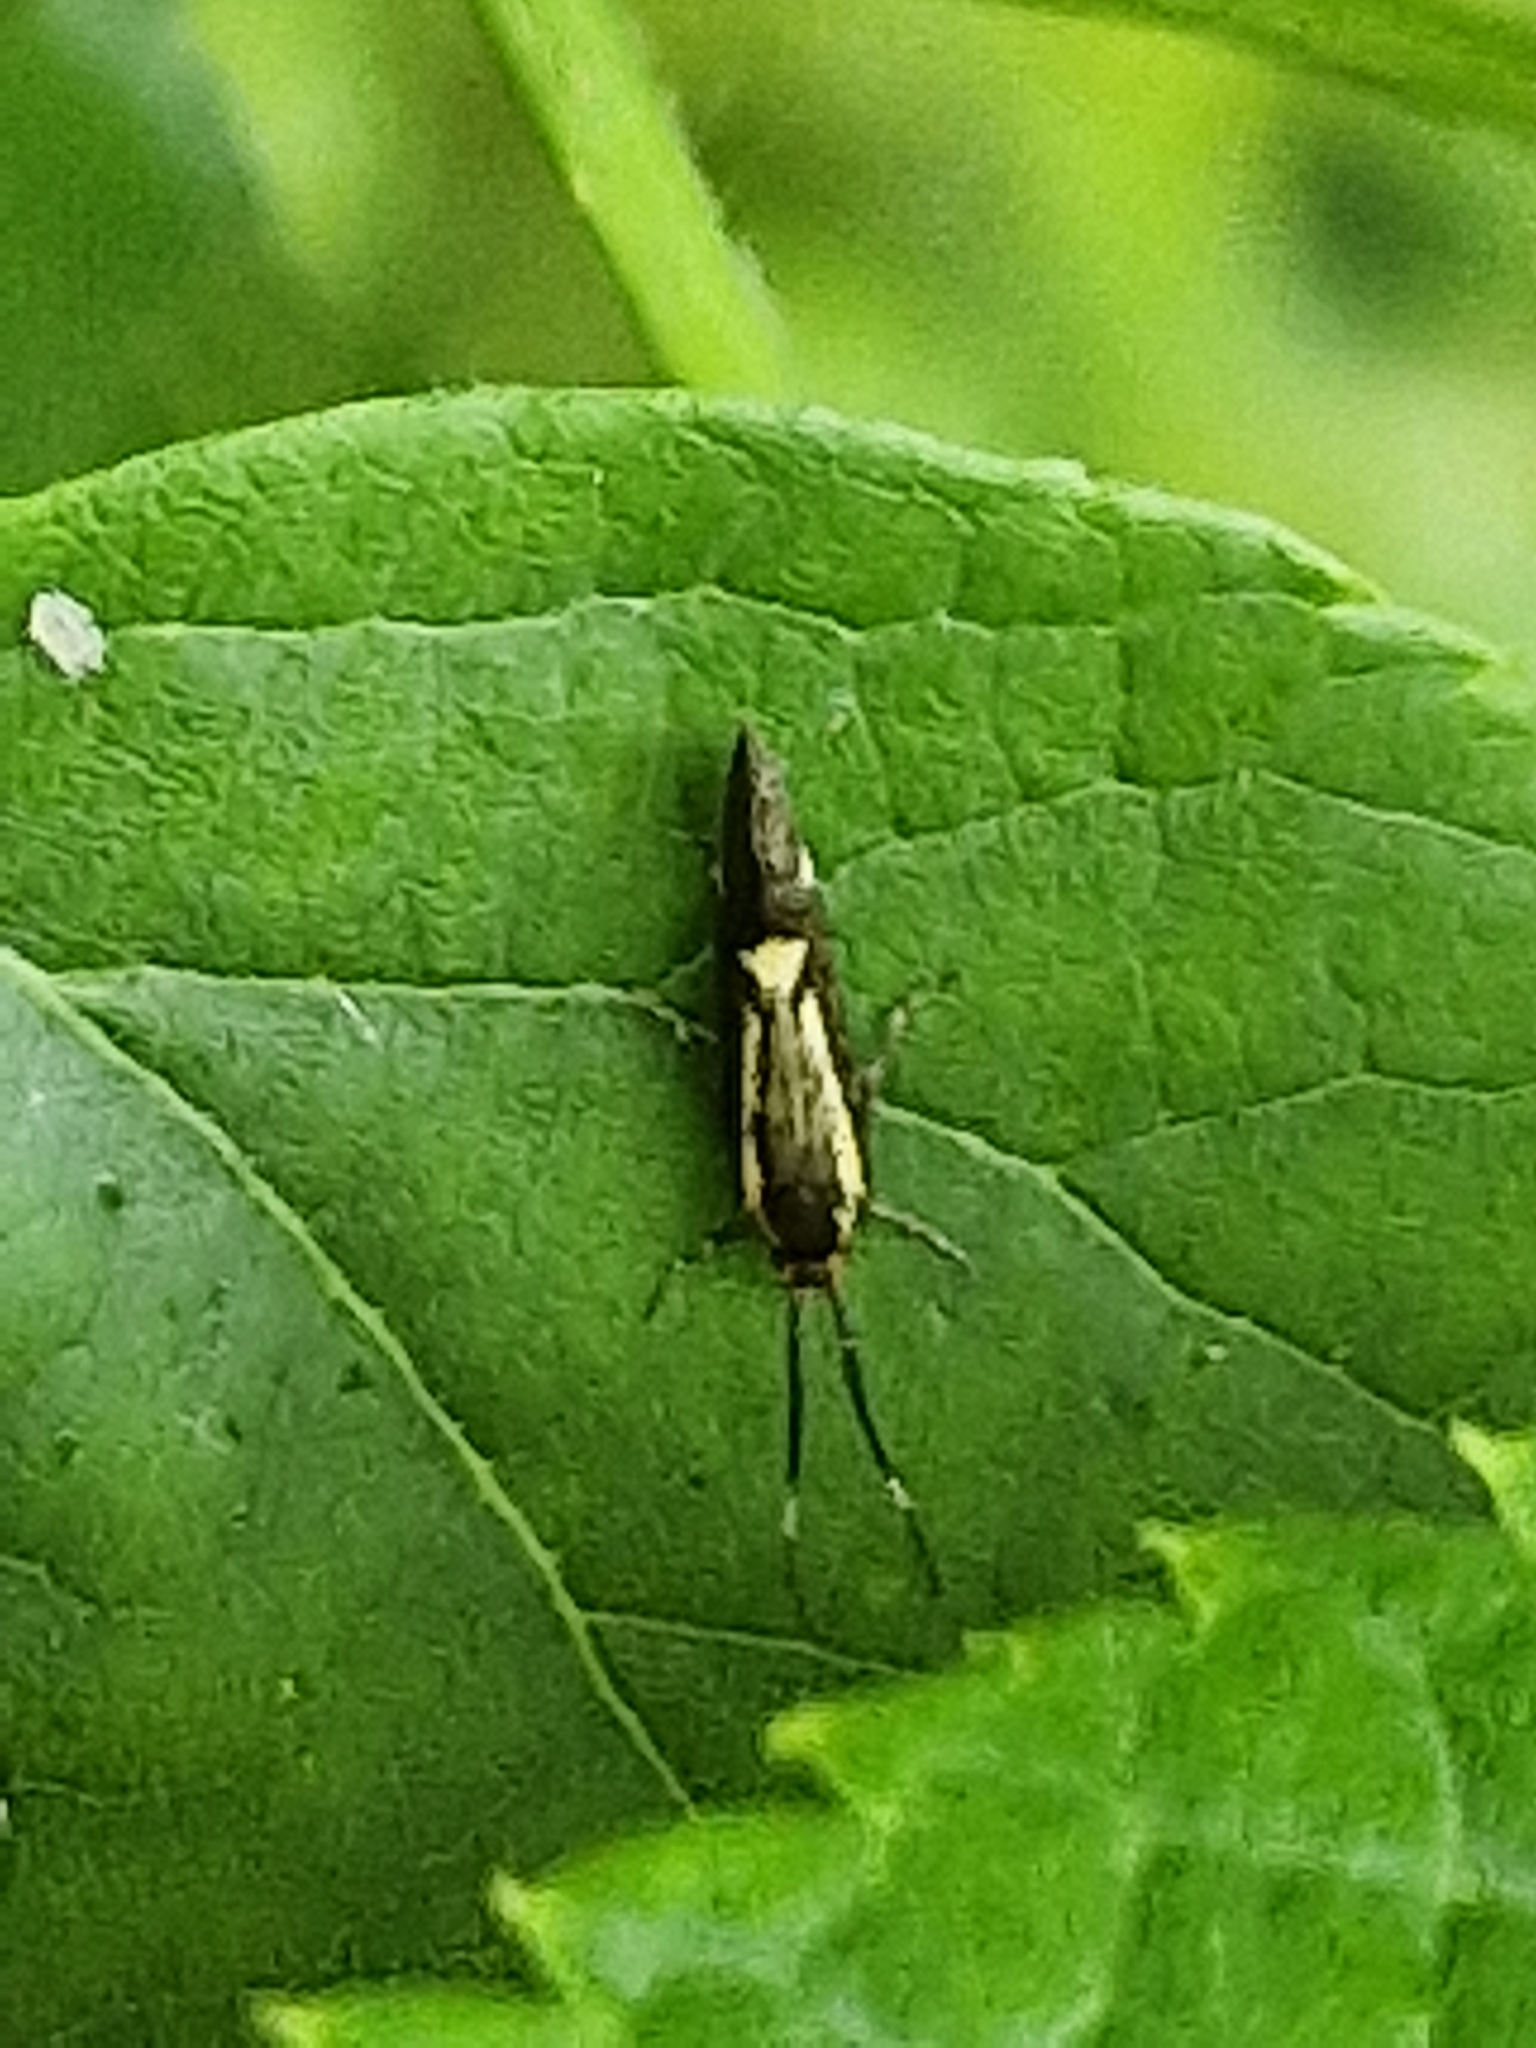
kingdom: Animalia
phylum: Arthropoda
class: Insecta
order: Lepidoptera
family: Oecophoridae
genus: Dafa
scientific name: Dafa Esperia sulphurella
